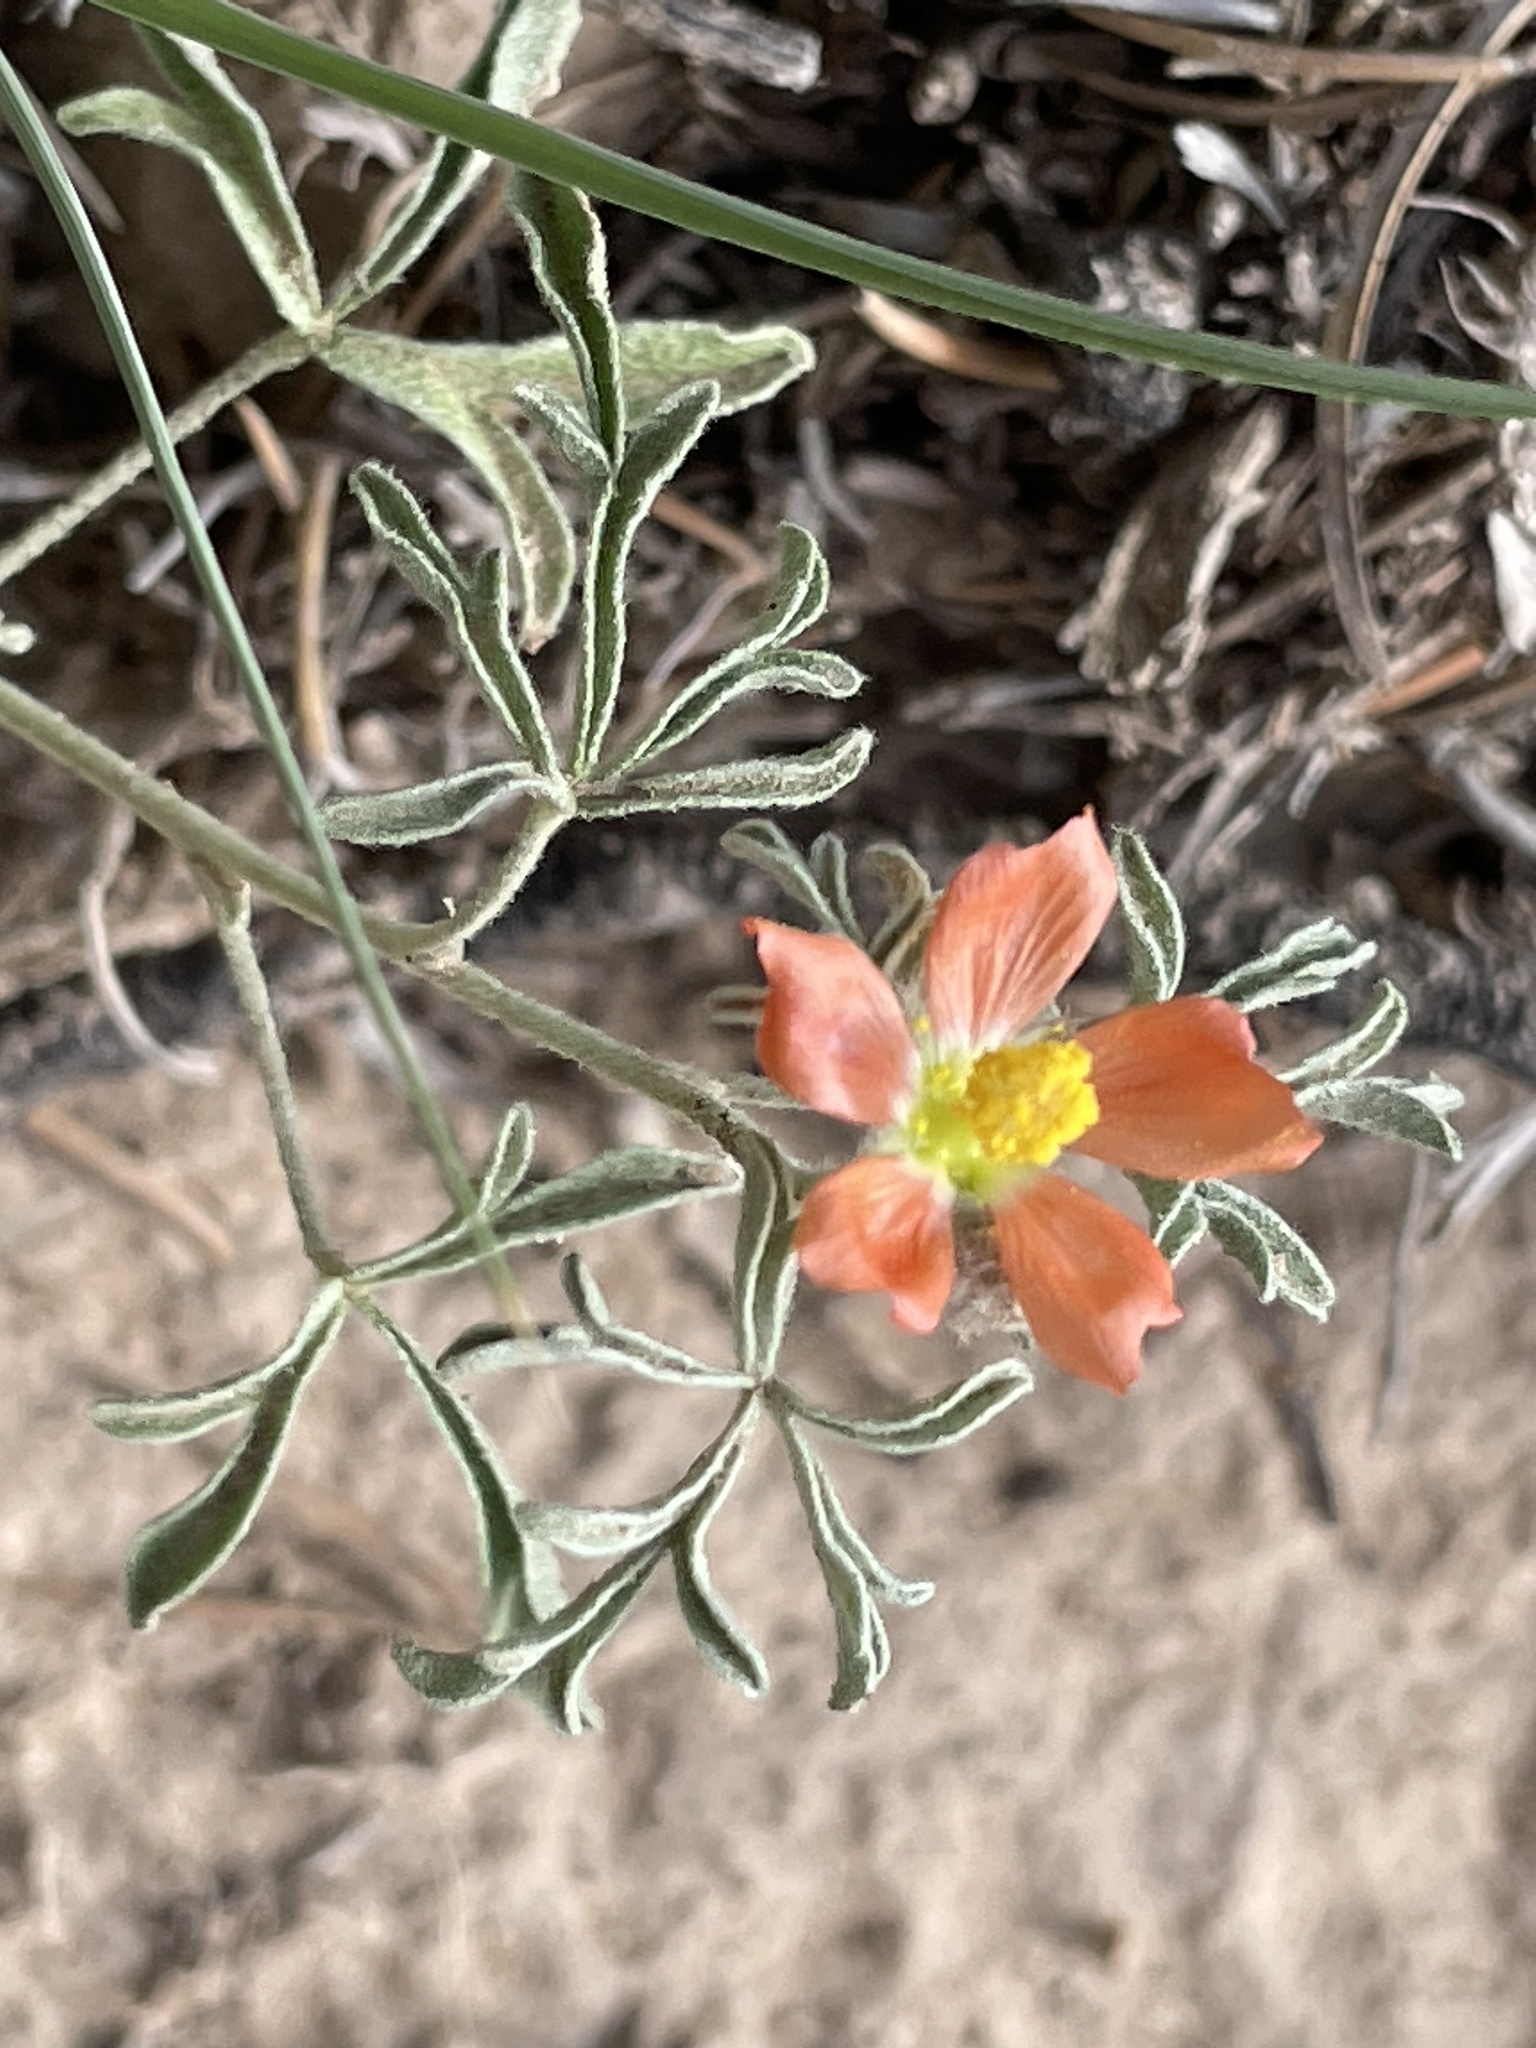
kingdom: Plantae
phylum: Tracheophyta
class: Magnoliopsida
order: Malvales
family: Malvaceae
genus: Sphaeralcea
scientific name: Sphaeralcea coccinea
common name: Moss-rose
